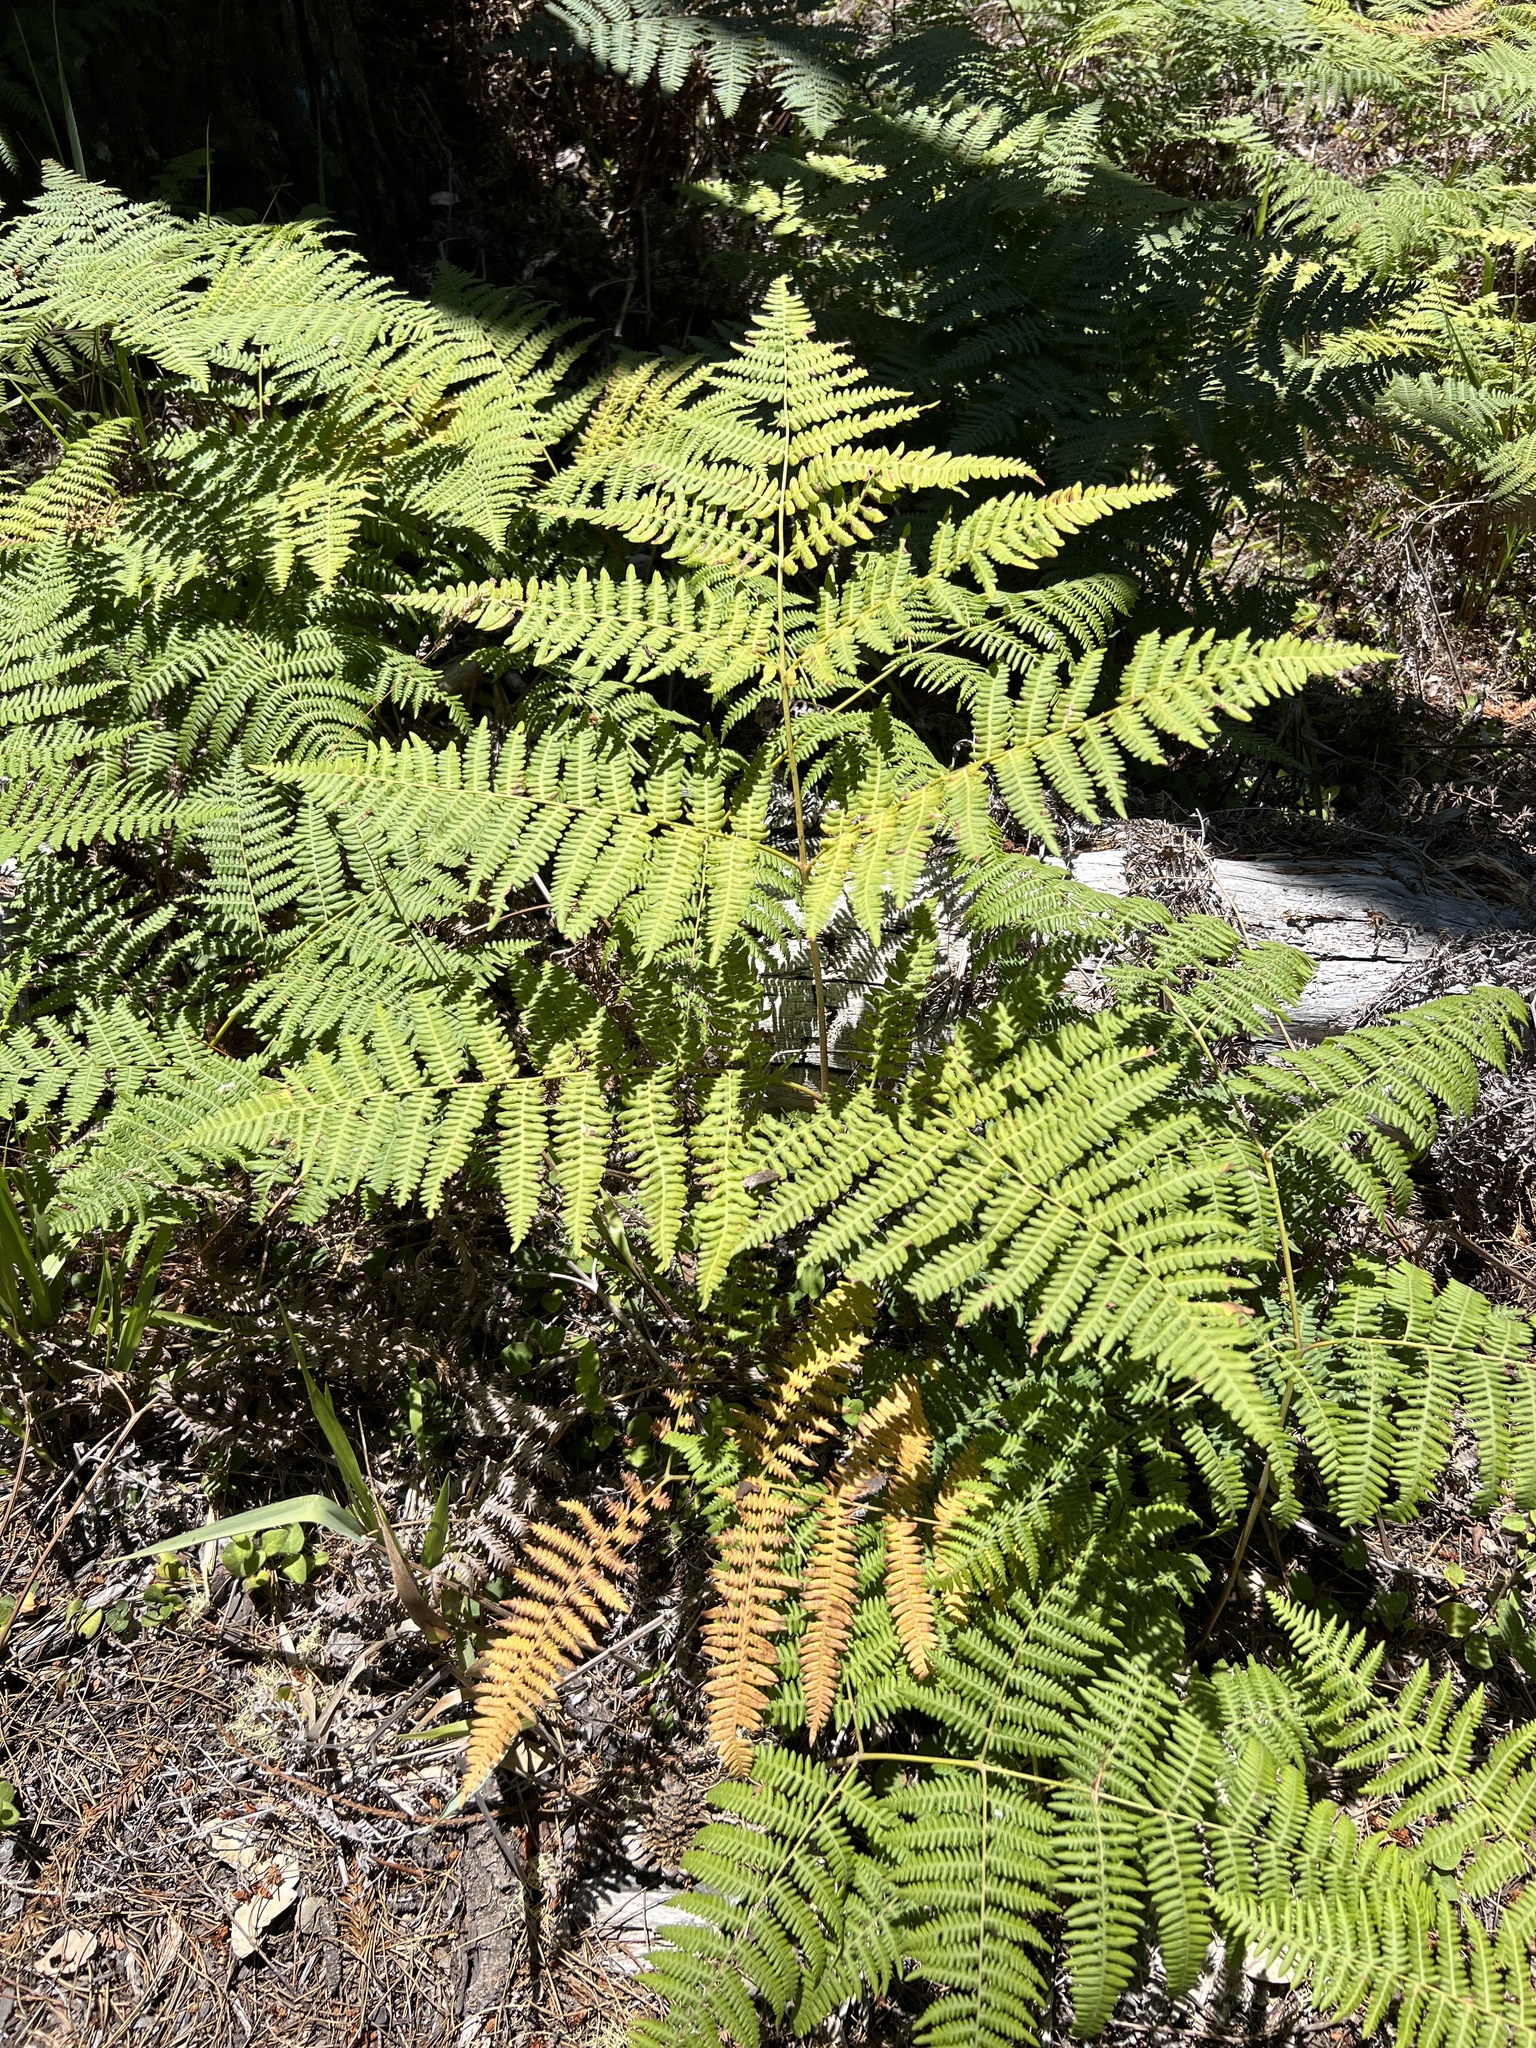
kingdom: Plantae
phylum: Tracheophyta
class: Polypodiopsida
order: Polypodiales
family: Dennstaedtiaceae
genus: Pteridium
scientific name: Pteridium aquilinum
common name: Bracken
